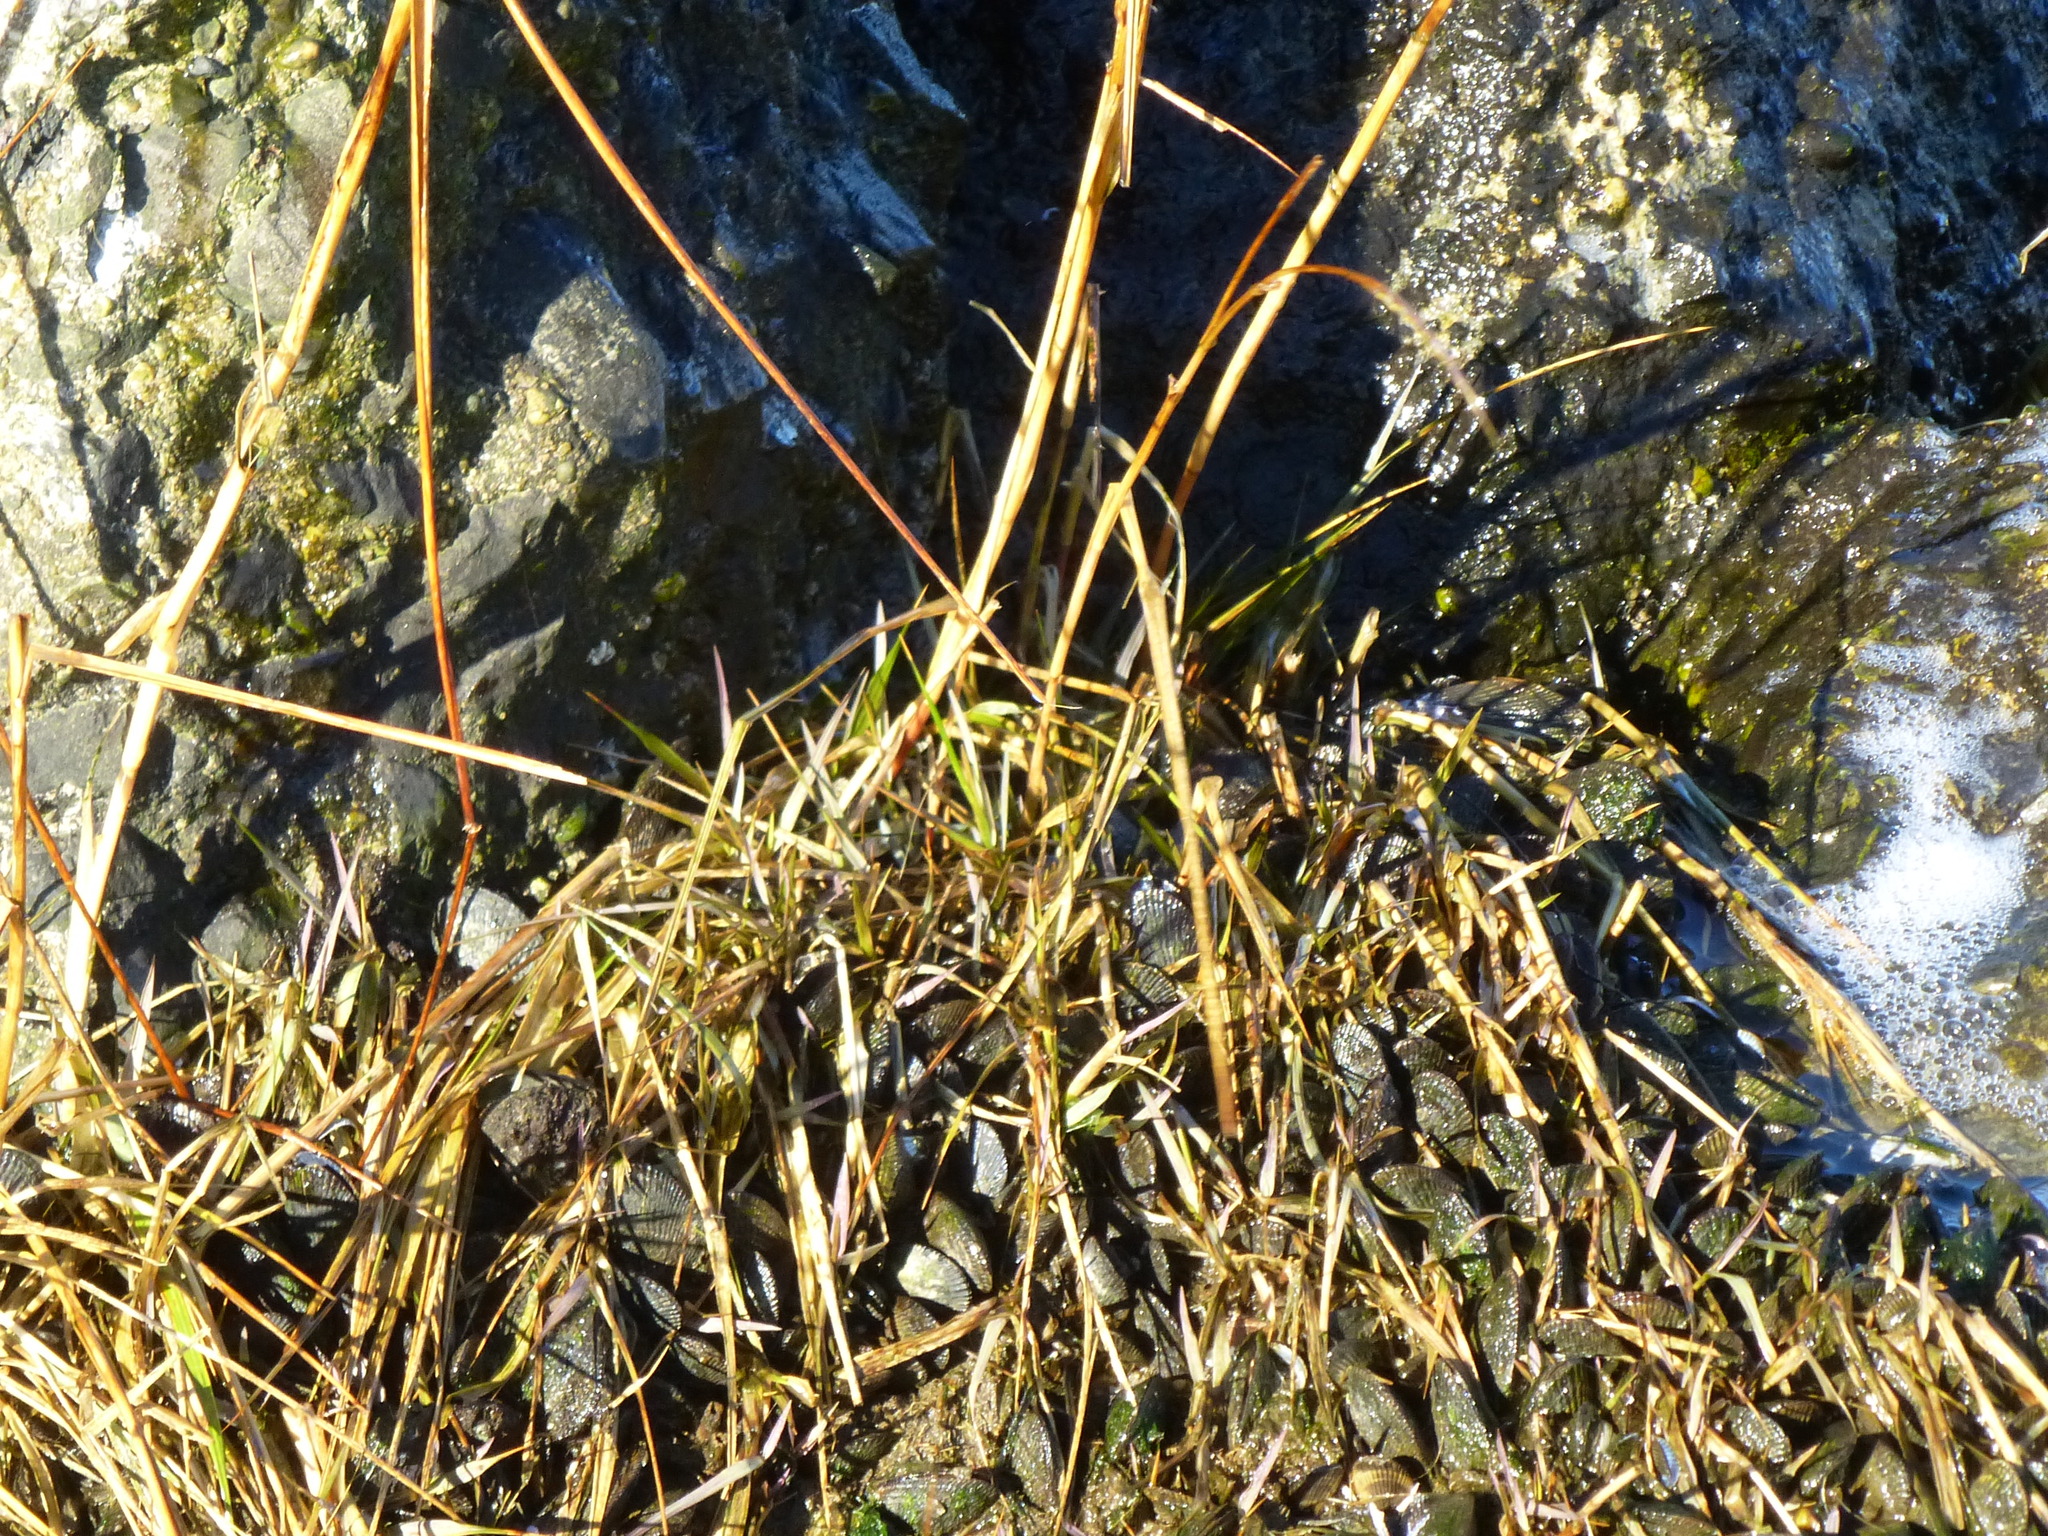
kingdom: Animalia
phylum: Mollusca
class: Bivalvia
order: Mytilida
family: Mytilidae
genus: Geukensia
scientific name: Geukensia demissa
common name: Ribbed mussel
